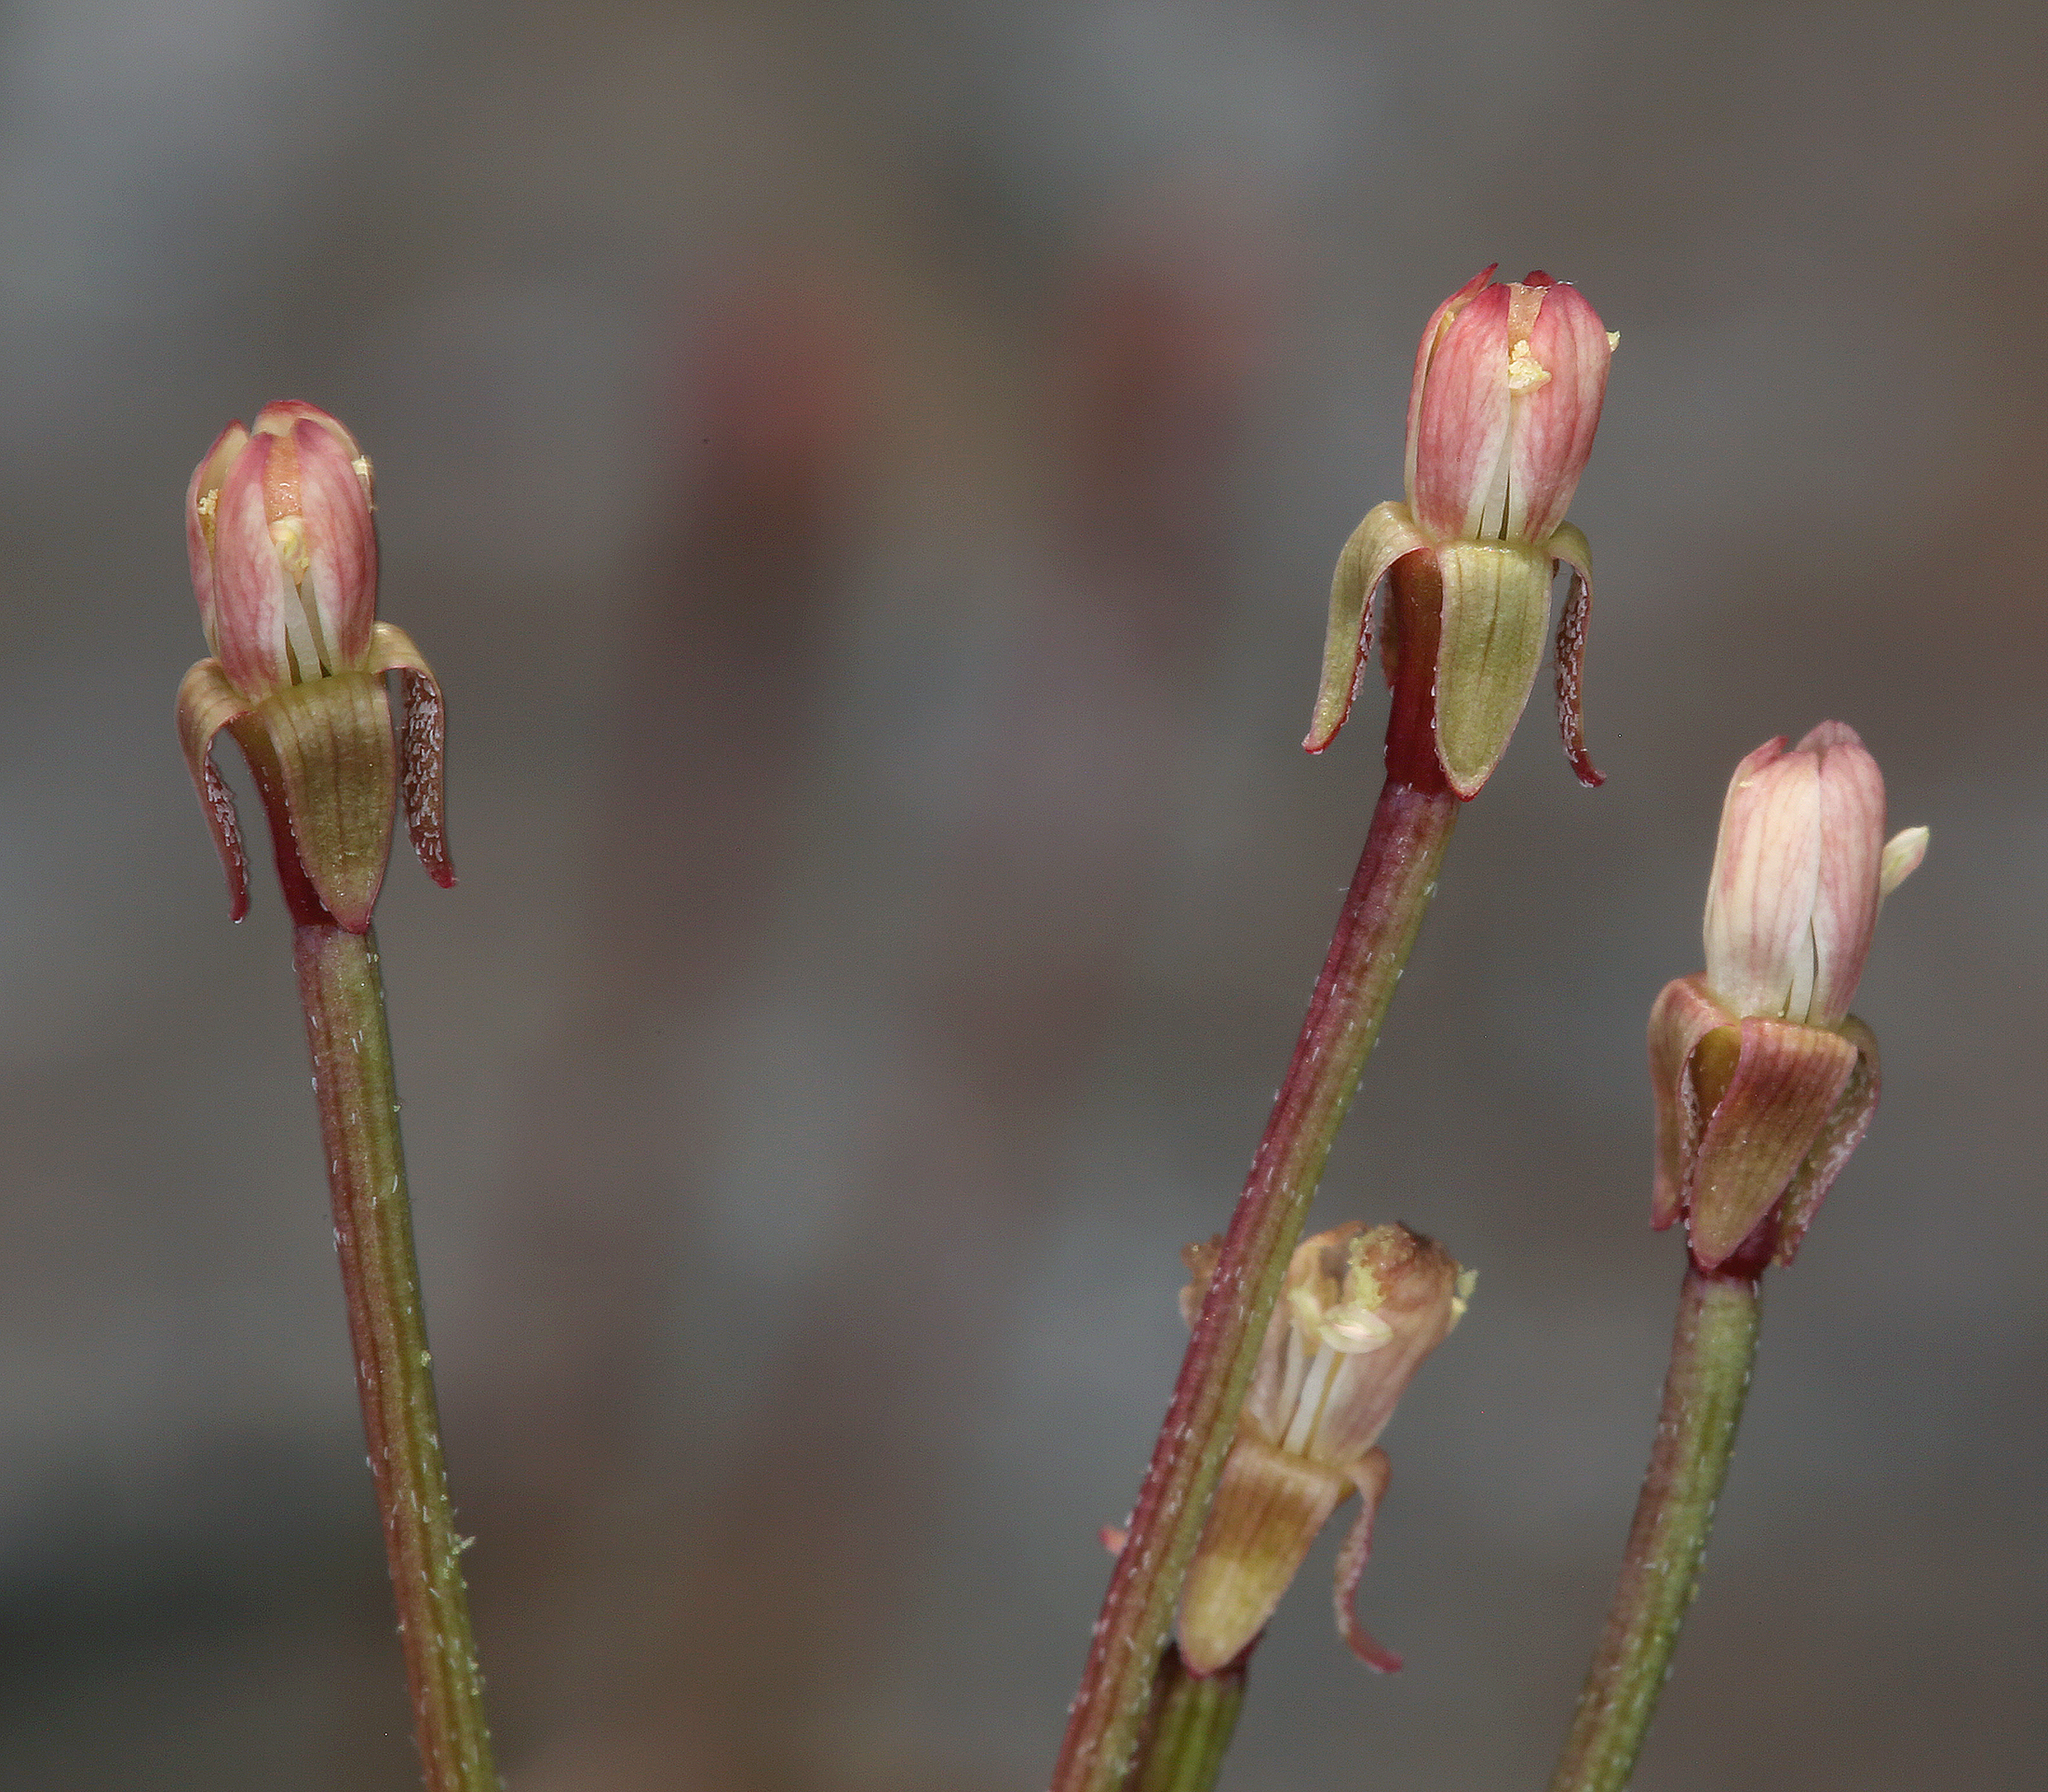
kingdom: Plantae
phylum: Tracheophyta
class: Magnoliopsida
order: Myrtales
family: Onagraceae
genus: Eremothera
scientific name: Eremothera chamaenerioides
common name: Longcapsule suncup
